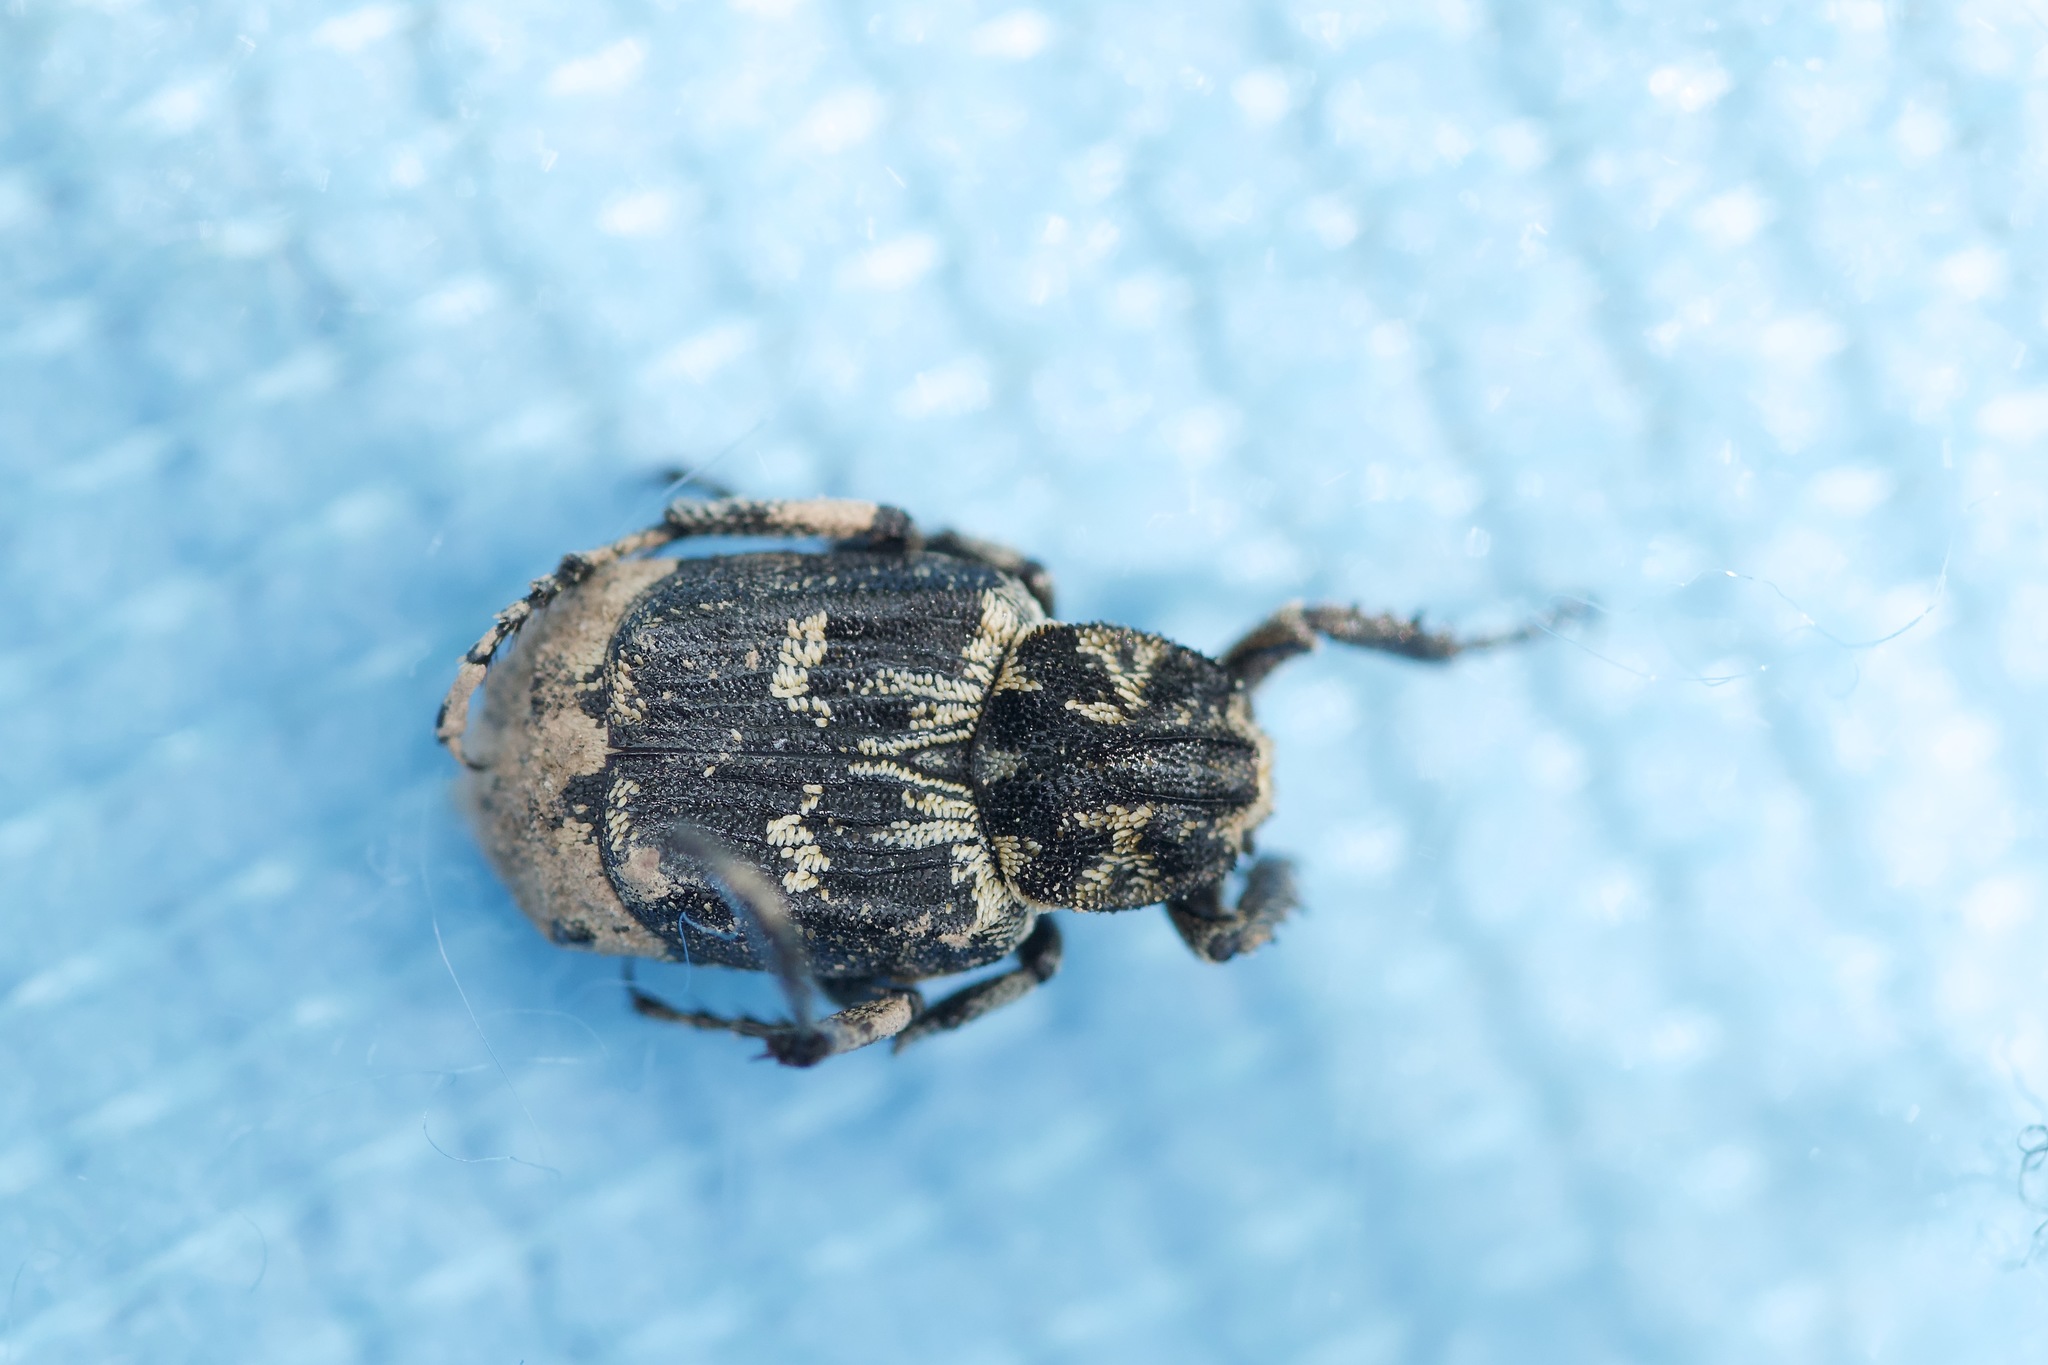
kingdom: Animalia
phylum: Arthropoda
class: Insecta
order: Coleoptera
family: Scarabaeidae
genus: Valgus
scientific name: Valgus hemipterus
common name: Bug flower chafer
